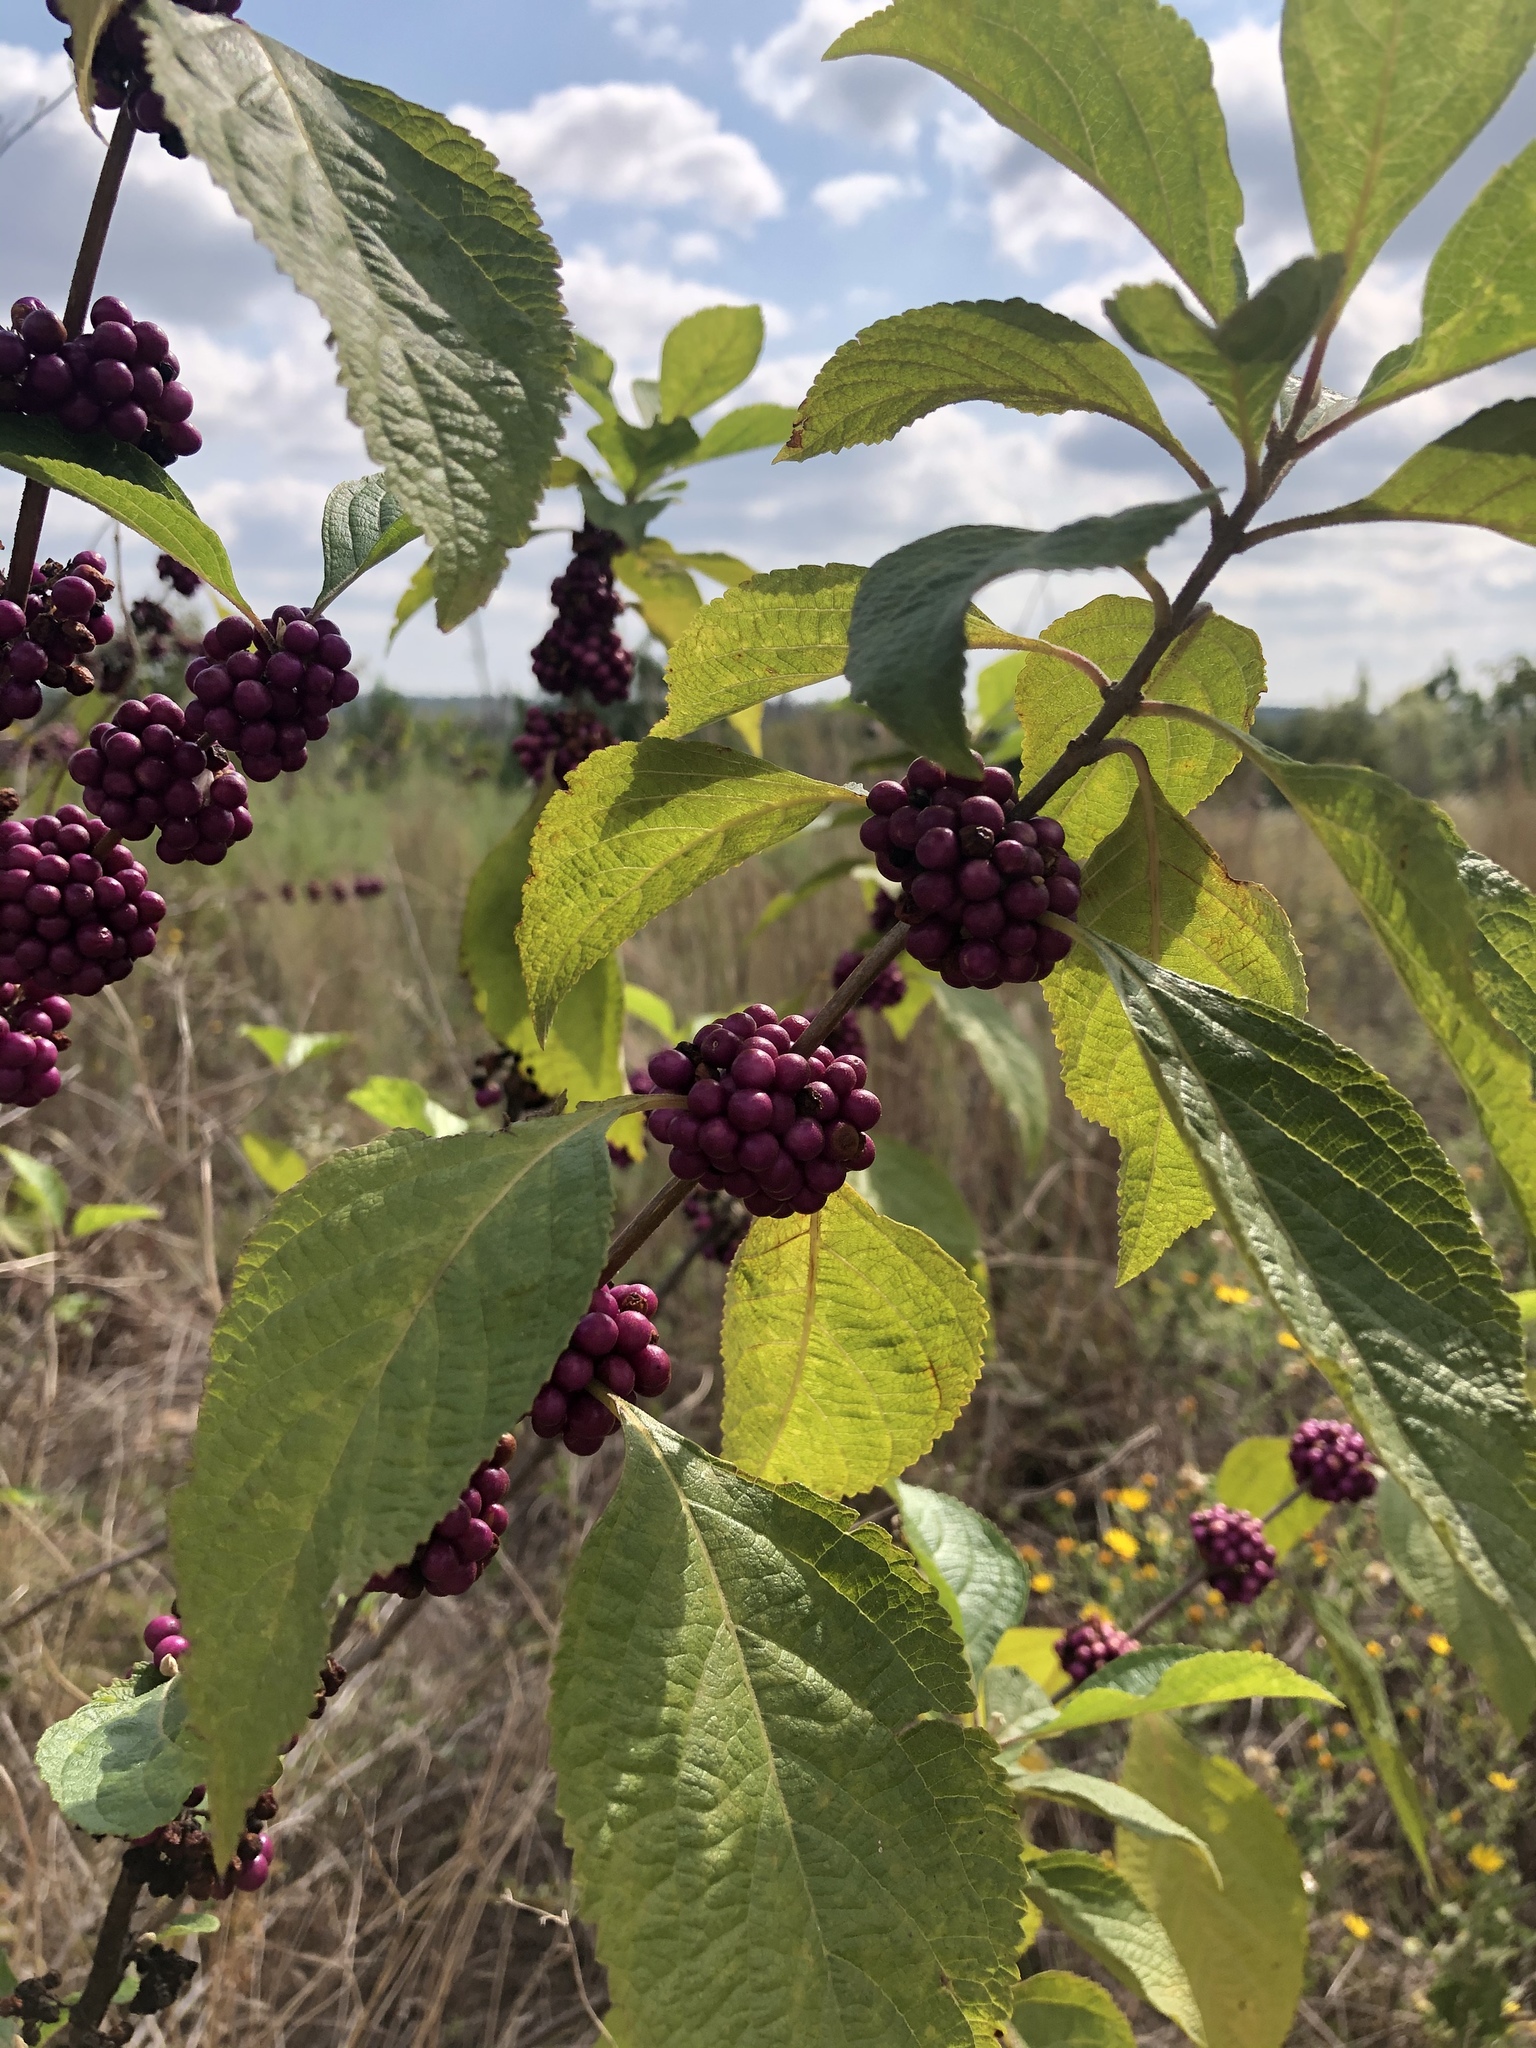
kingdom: Plantae
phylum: Tracheophyta
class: Magnoliopsida
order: Lamiales
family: Lamiaceae
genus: Callicarpa
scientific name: Callicarpa americana
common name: American beautyberry
